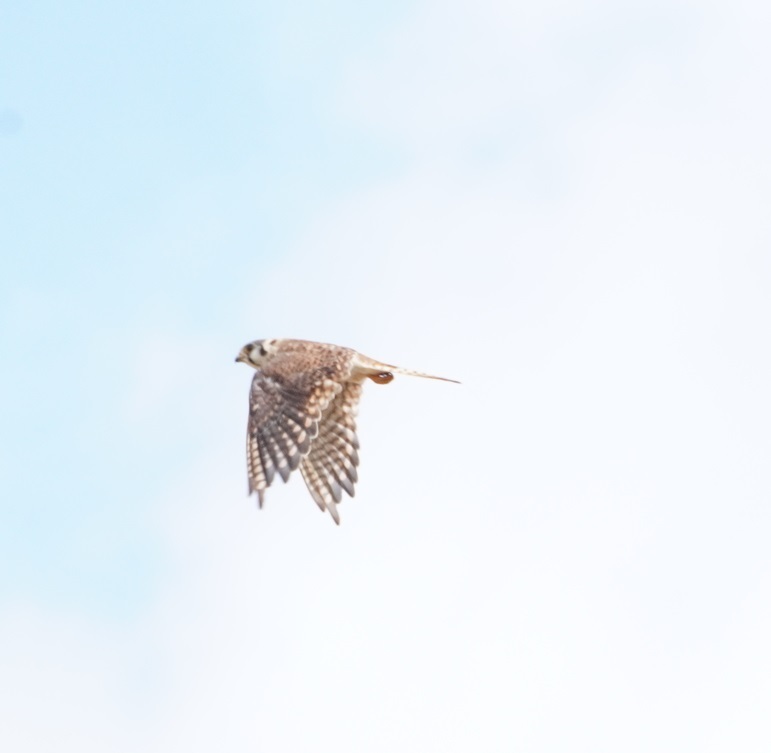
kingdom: Animalia
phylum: Chordata
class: Aves
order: Falconiformes
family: Falconidae
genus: Falco
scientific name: Falco sparverius
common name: American kestrel
